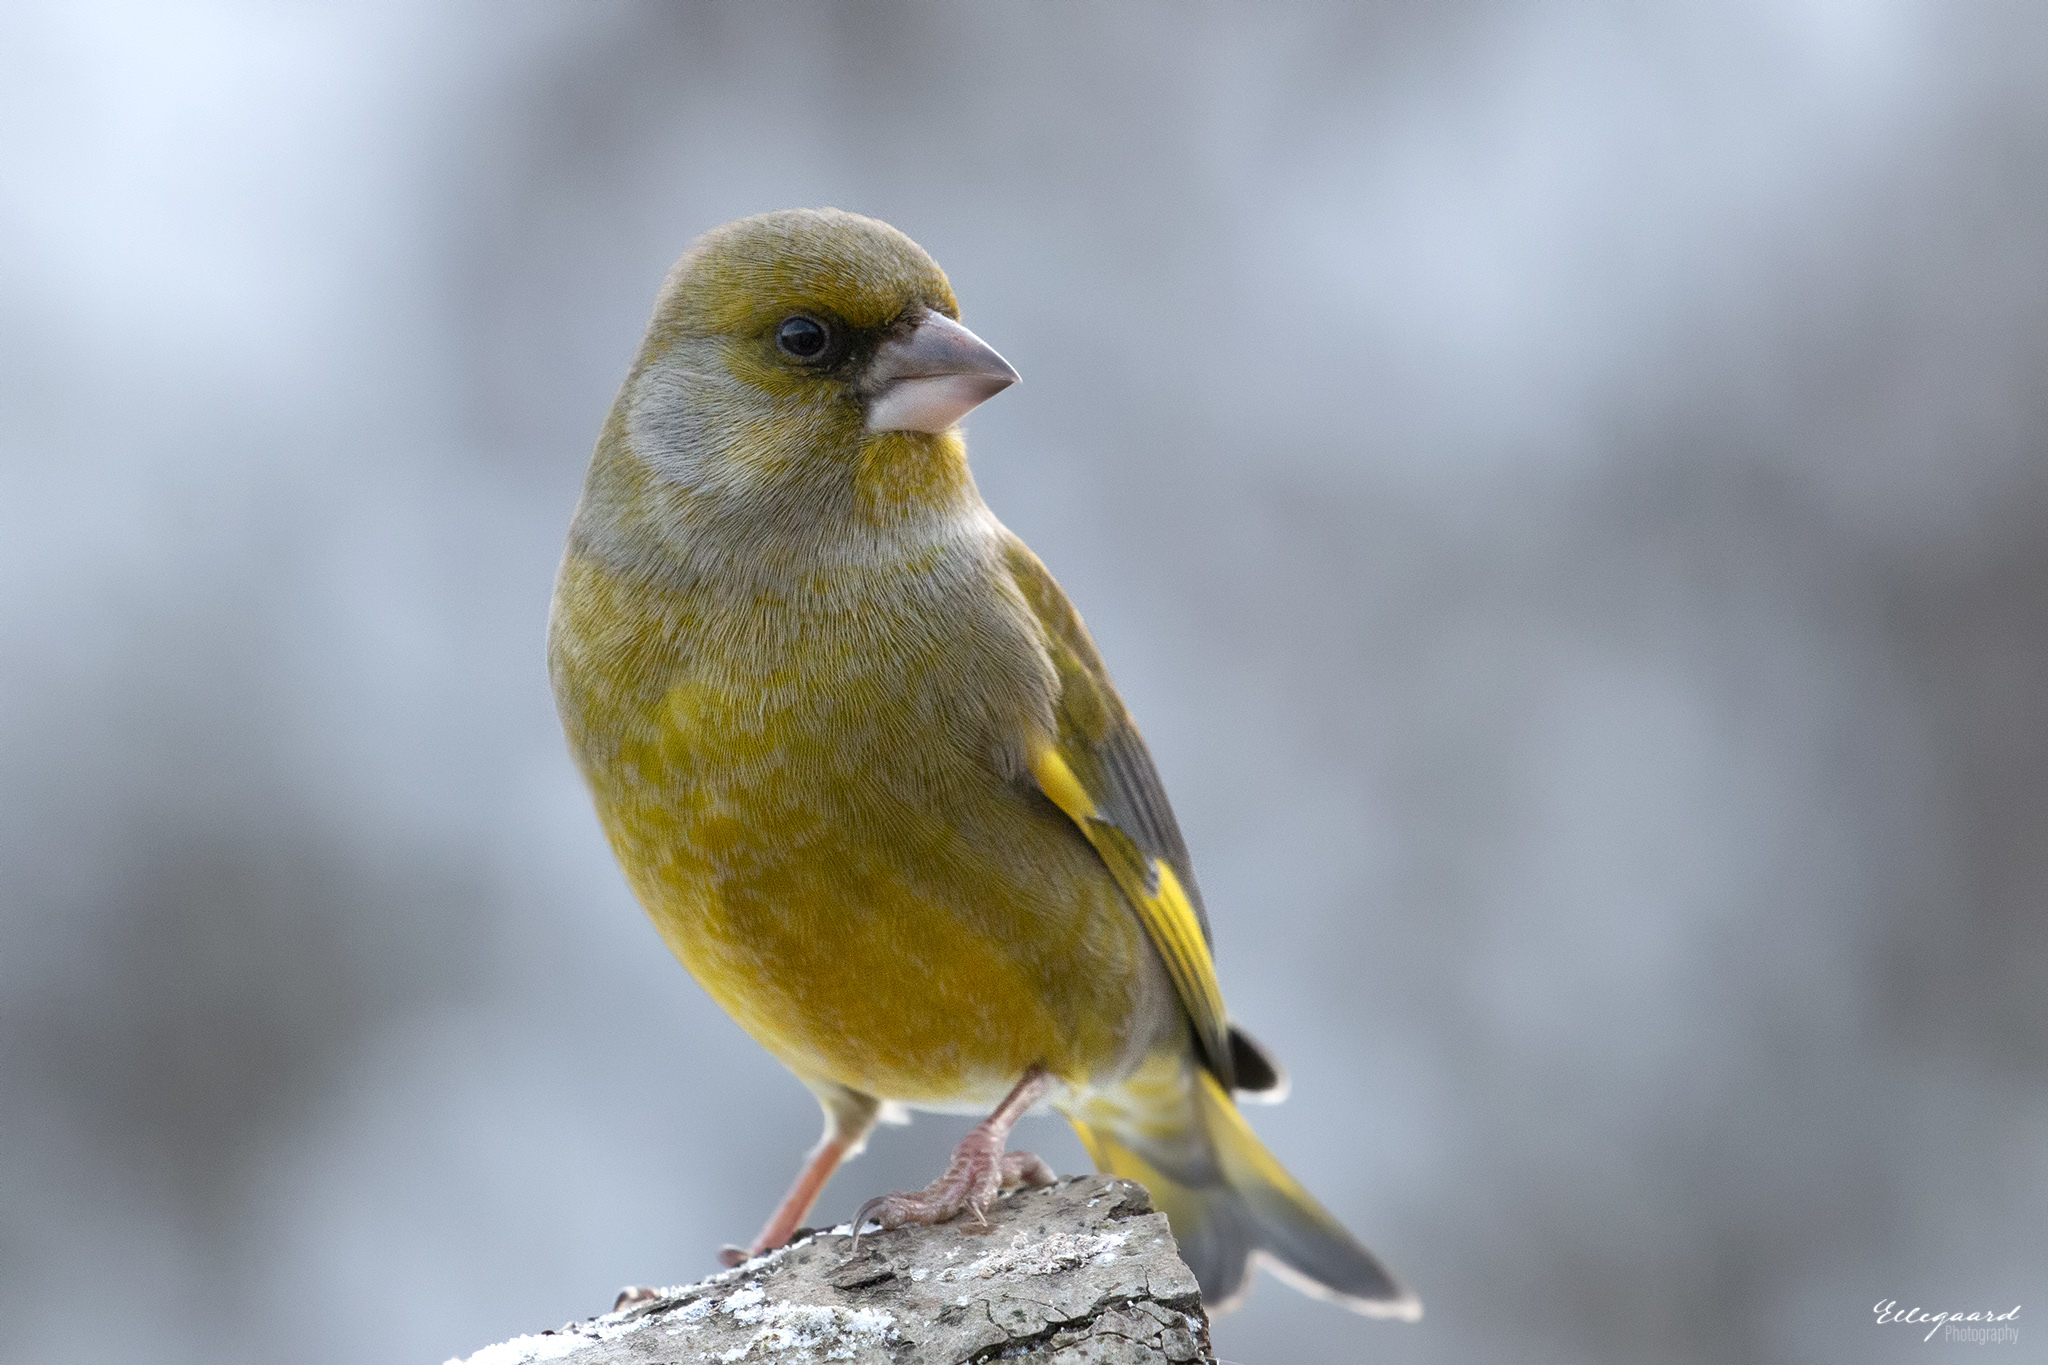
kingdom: Plantae
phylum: Tracheophyta
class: Liliopsida
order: Poales
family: Poaceae
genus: Chloris
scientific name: Chloris chloris
